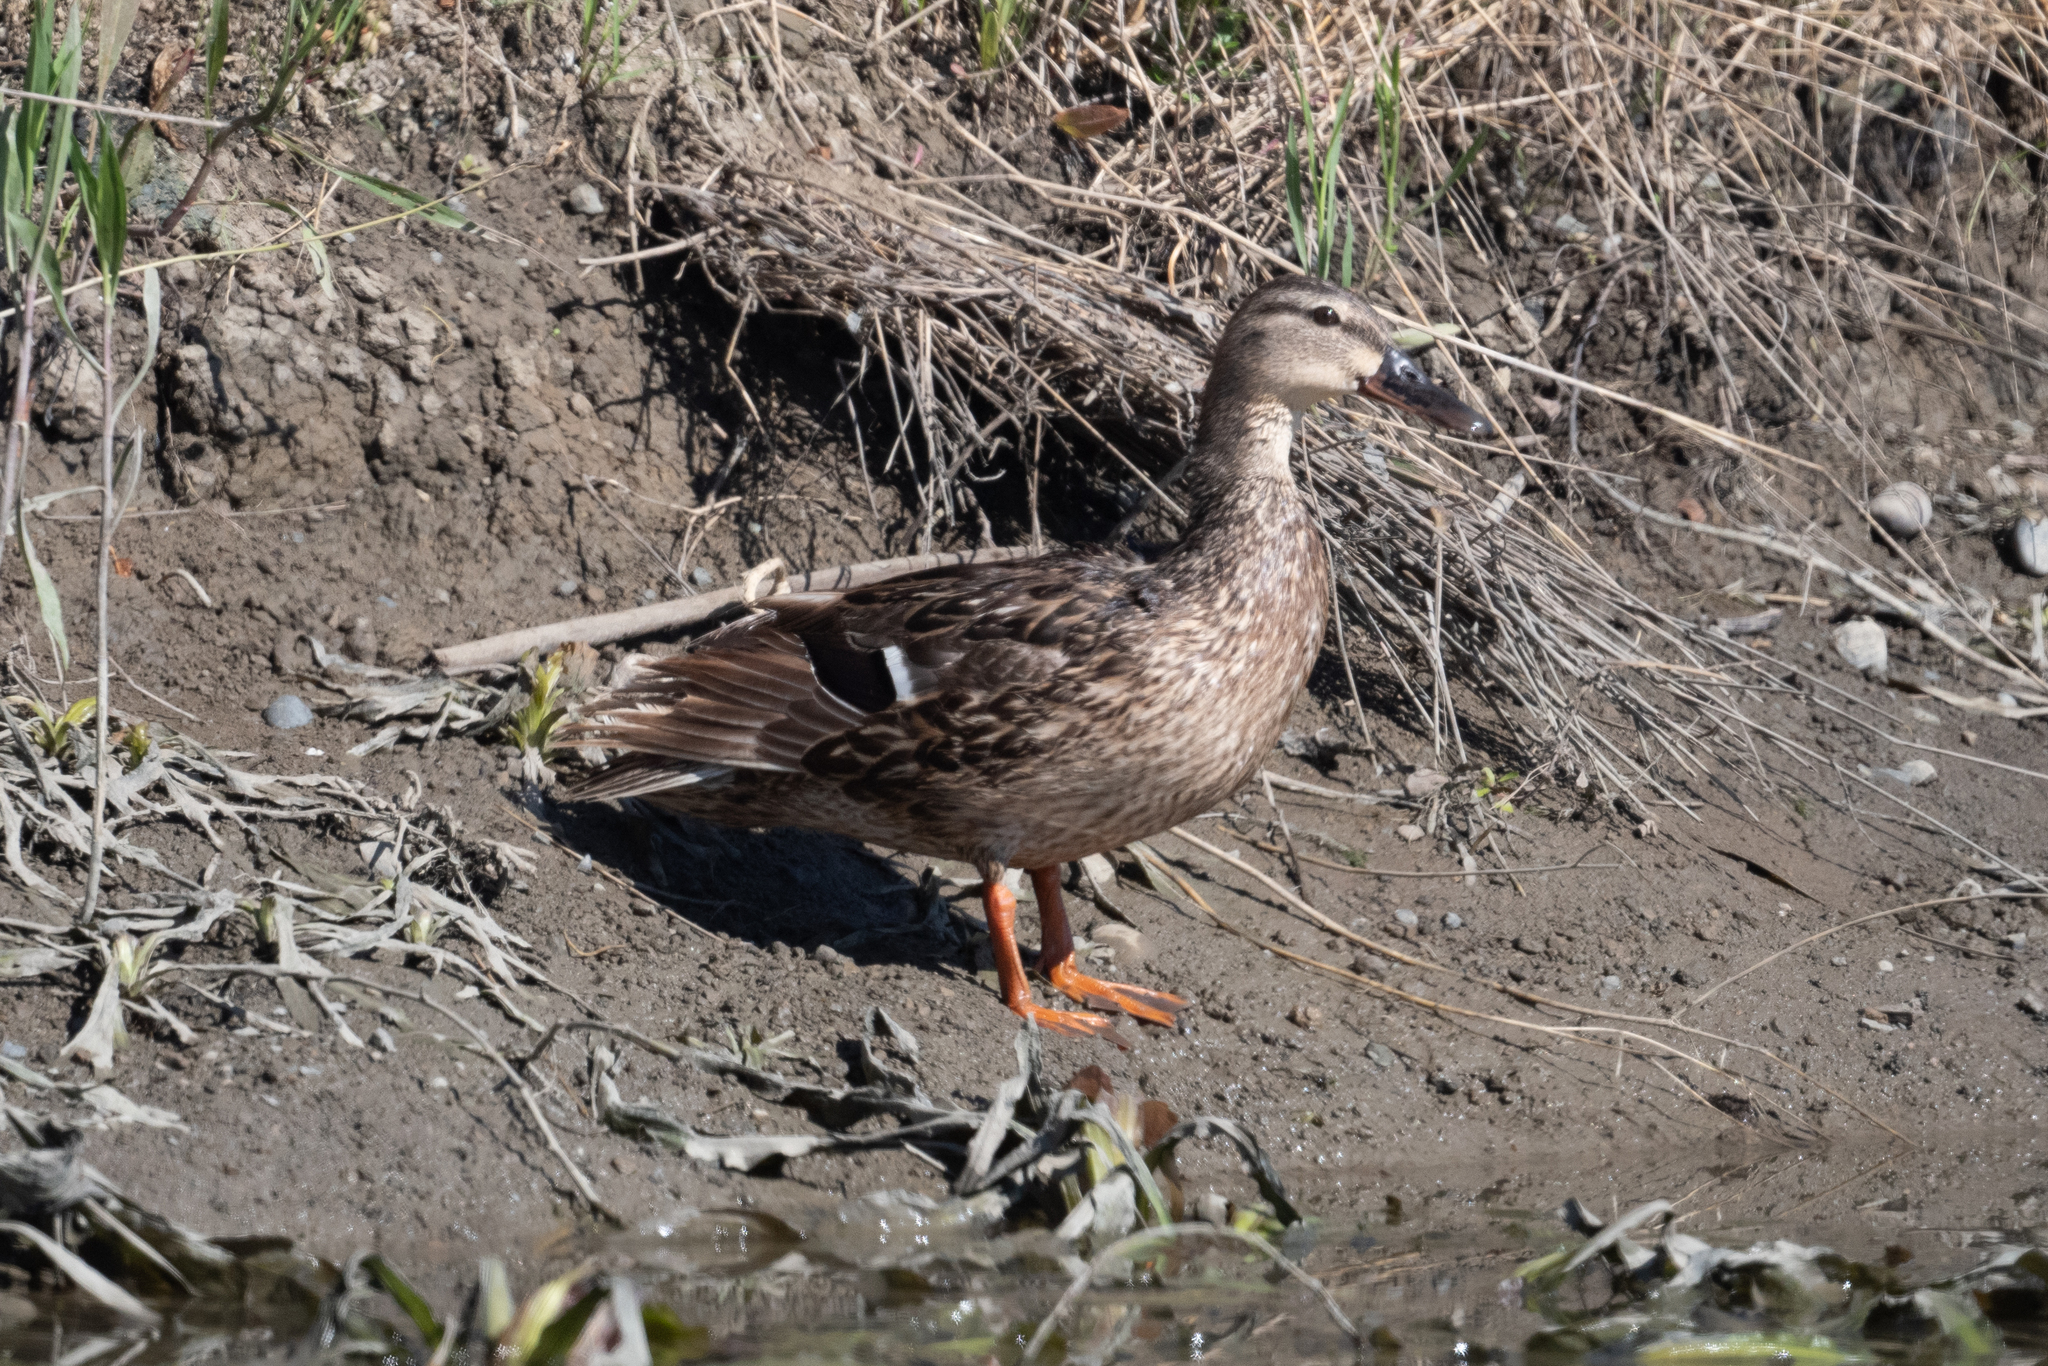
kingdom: Animalia
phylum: Chordata
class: Aves
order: Anseriformes
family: Anatidae
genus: Anas
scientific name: Anas platyrhynchos
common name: Mallard
